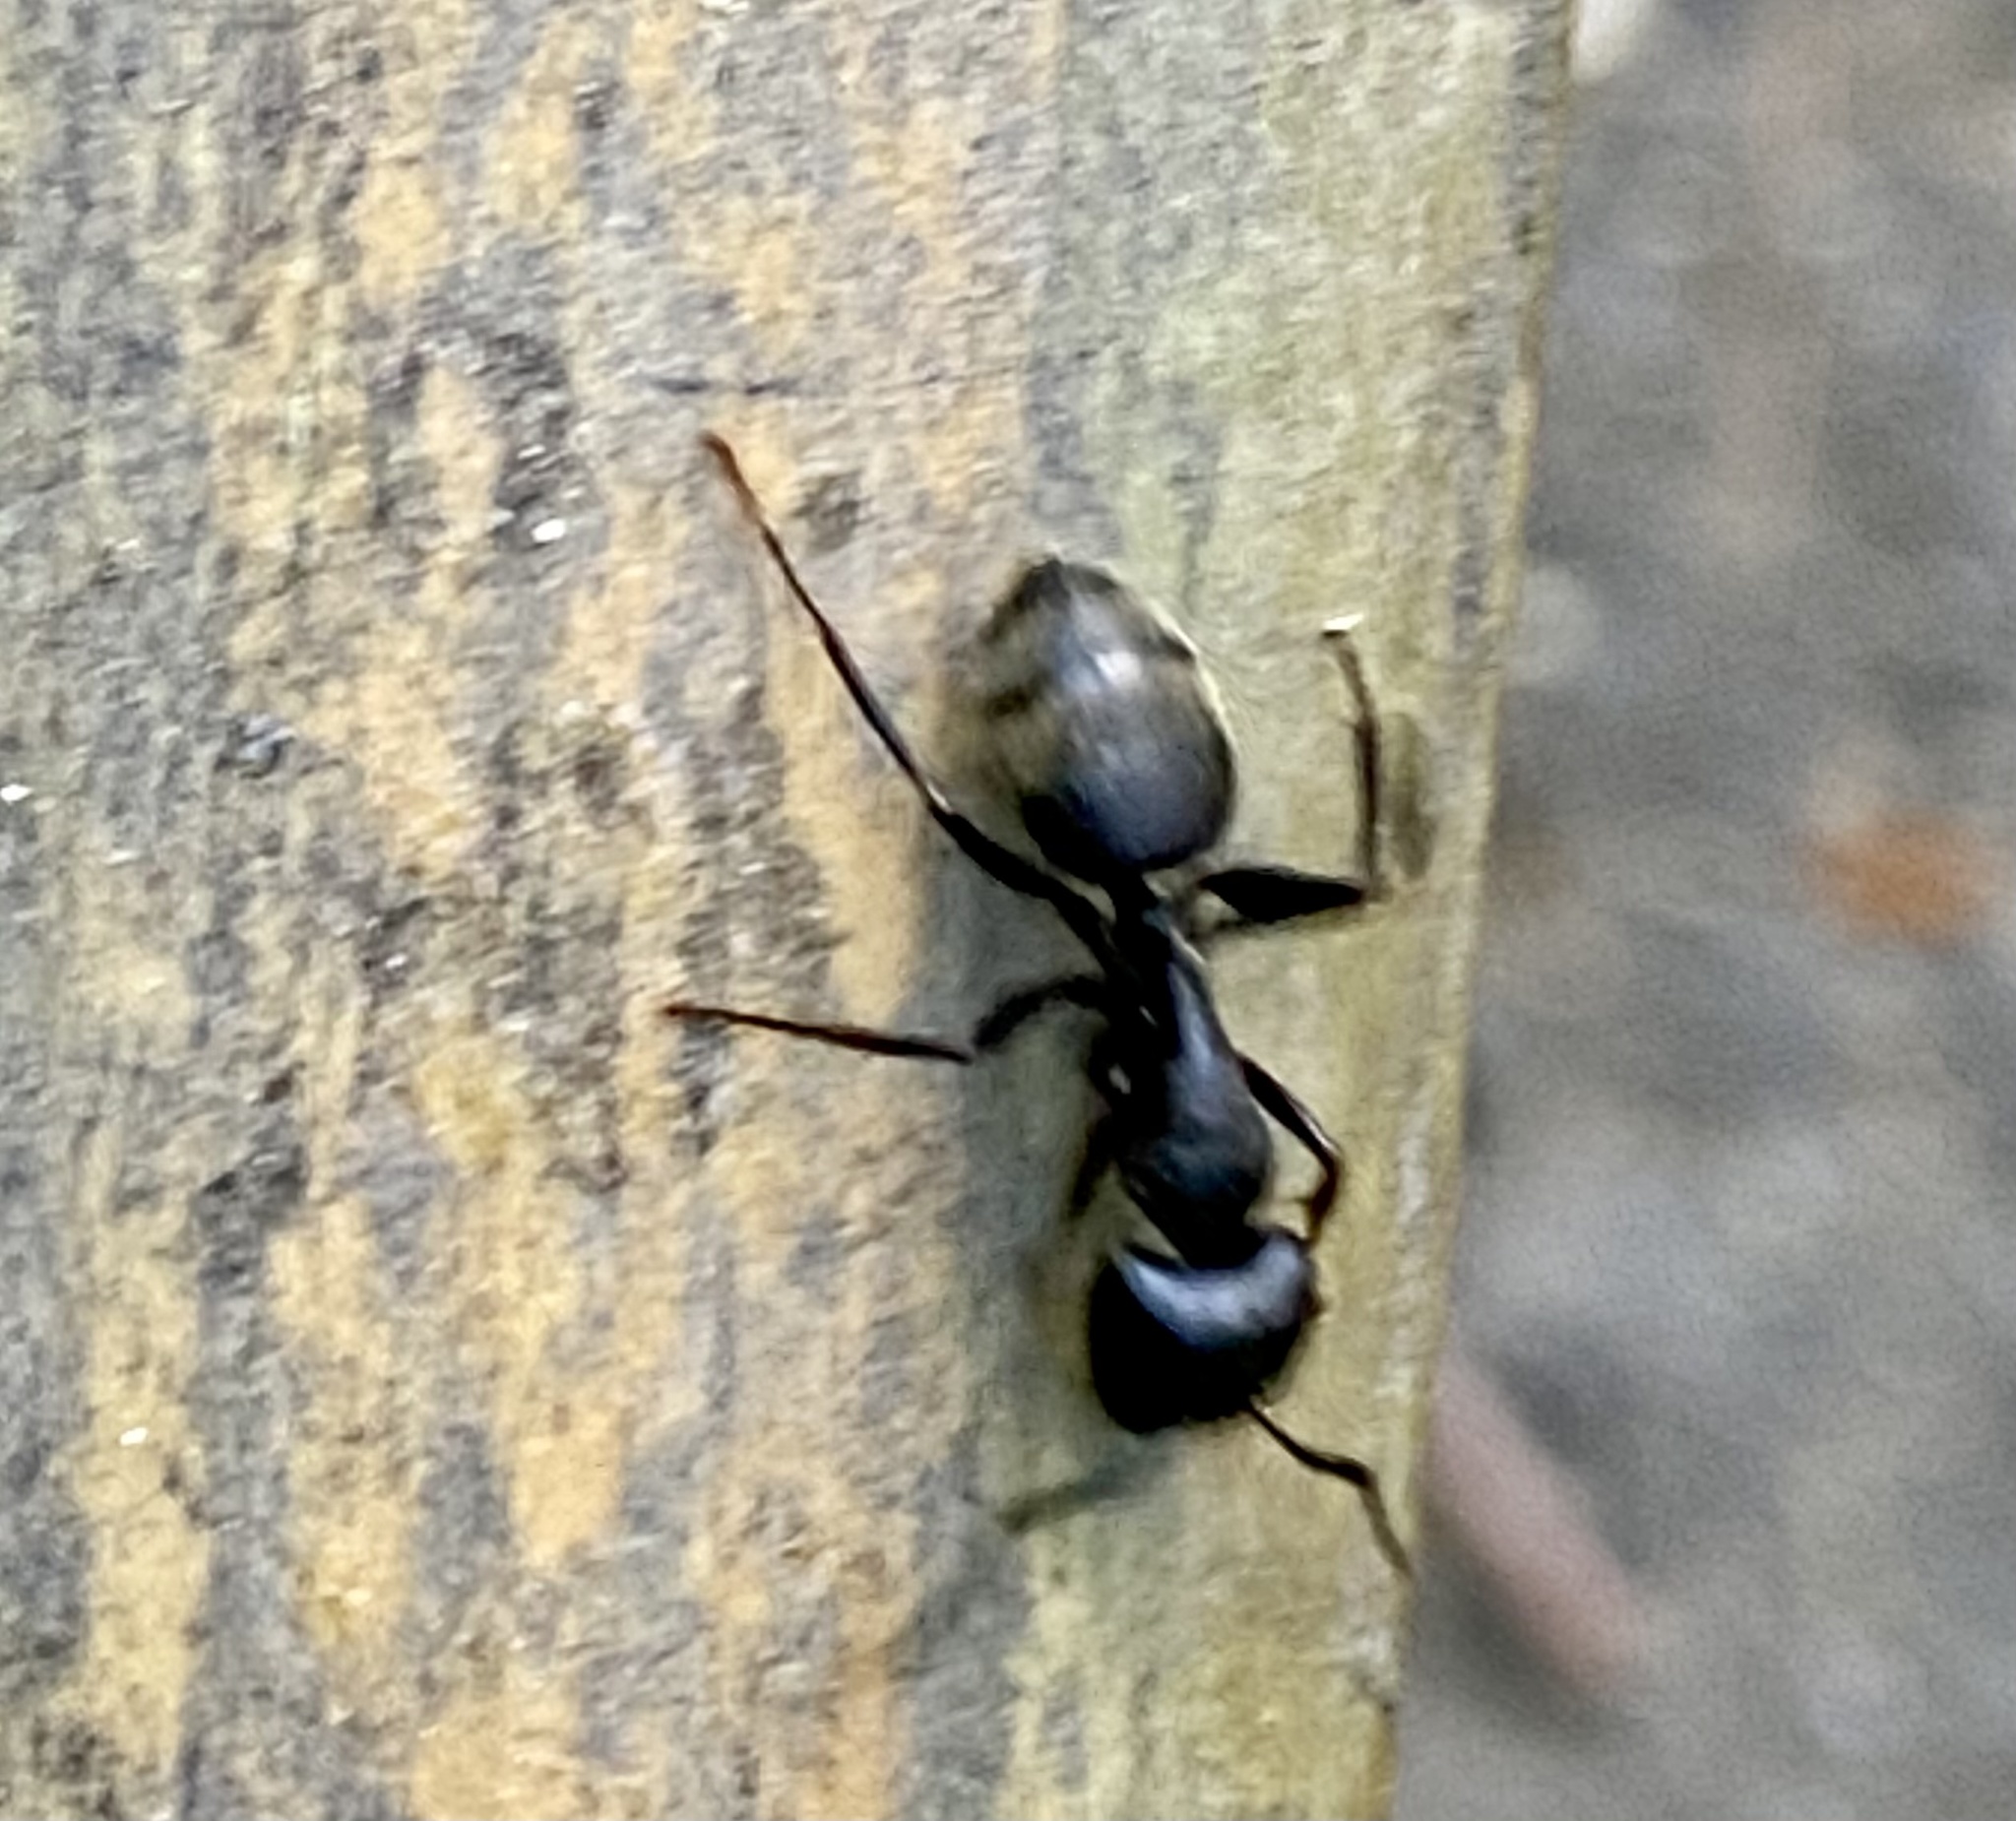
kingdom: Animalia
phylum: Arthropoda
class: Insecta
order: Hymenoptera
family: Formicidae
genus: Camponotus
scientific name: Camponotus pennsylvanicus
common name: Black carpenter ant
